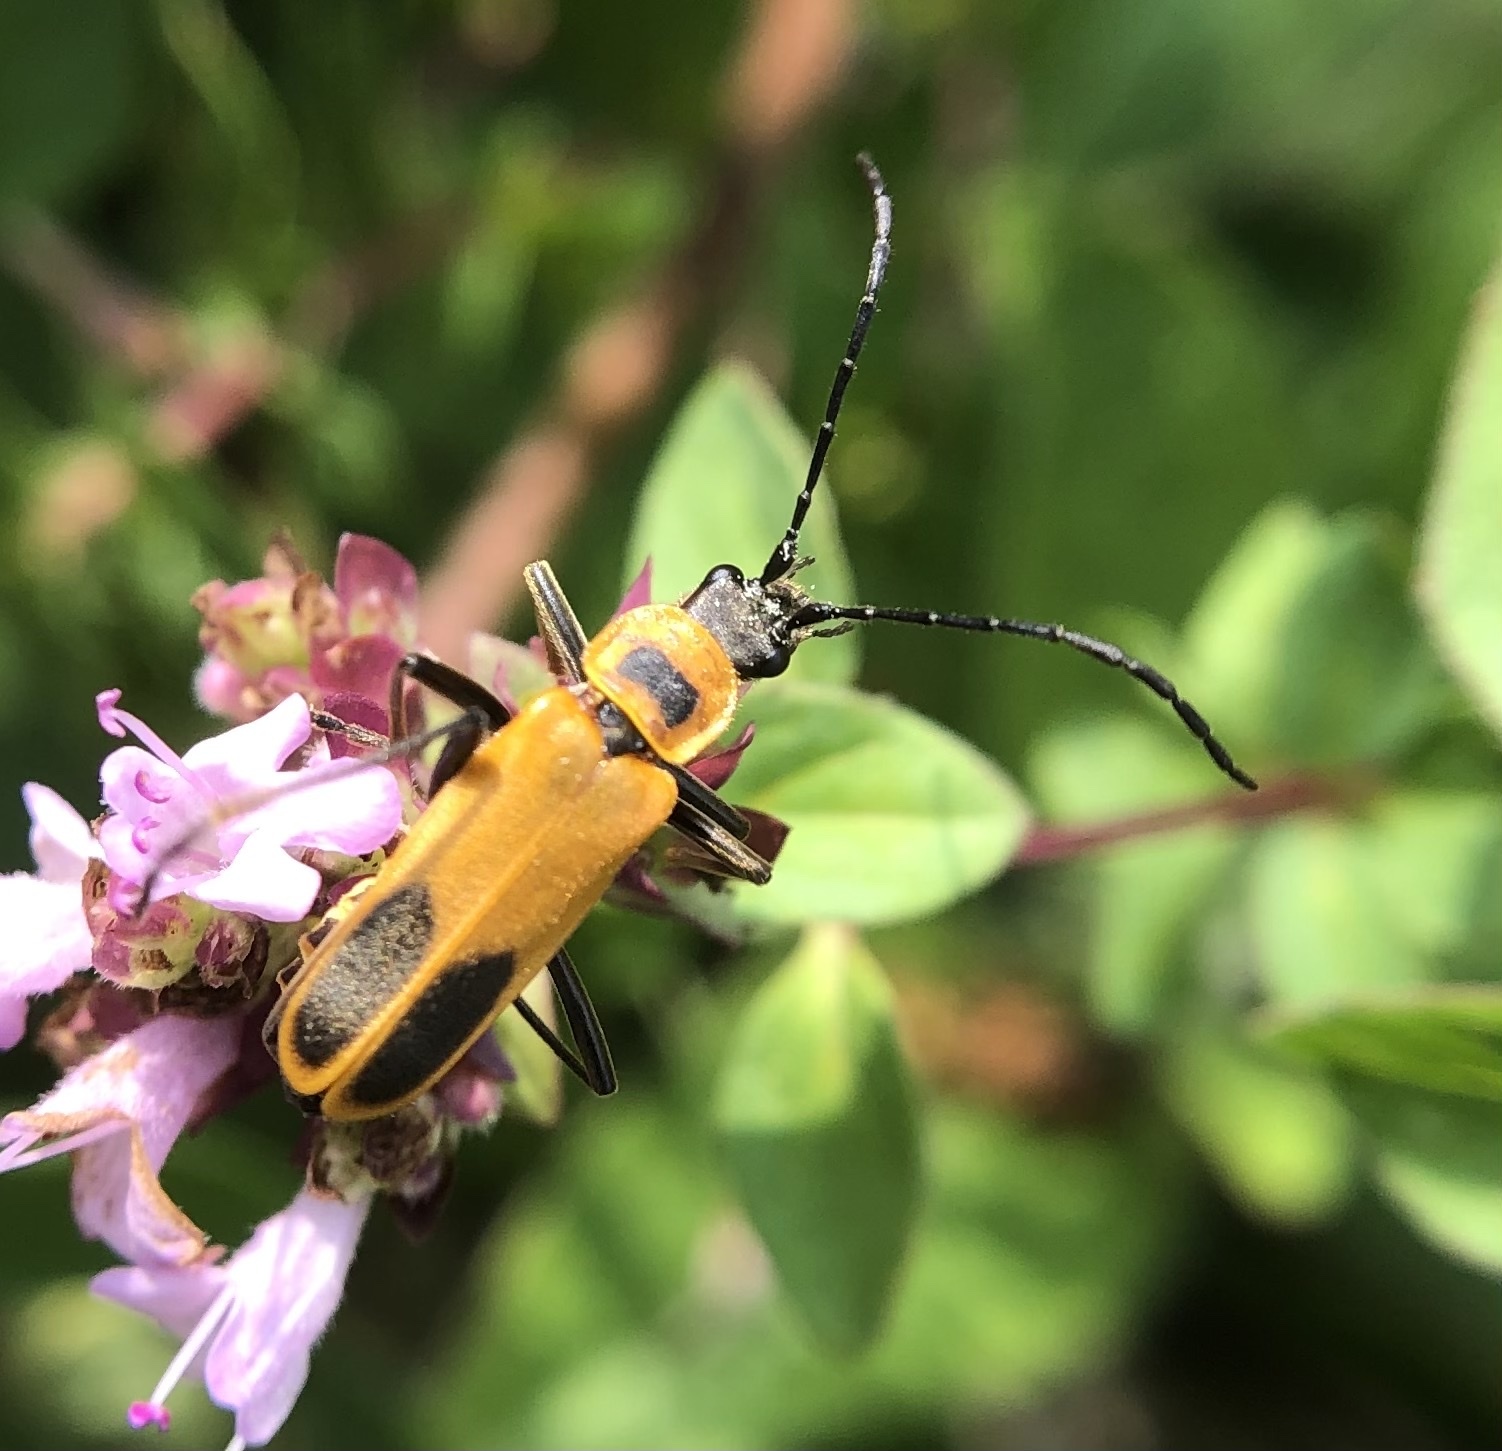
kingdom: Animalia
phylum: Arthropoda
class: Insecta
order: Coleoptera
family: Cantharidae
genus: Chauliognathus
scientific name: Chauliognathus pensylvanicus
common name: Goldenrod soldier beetle
